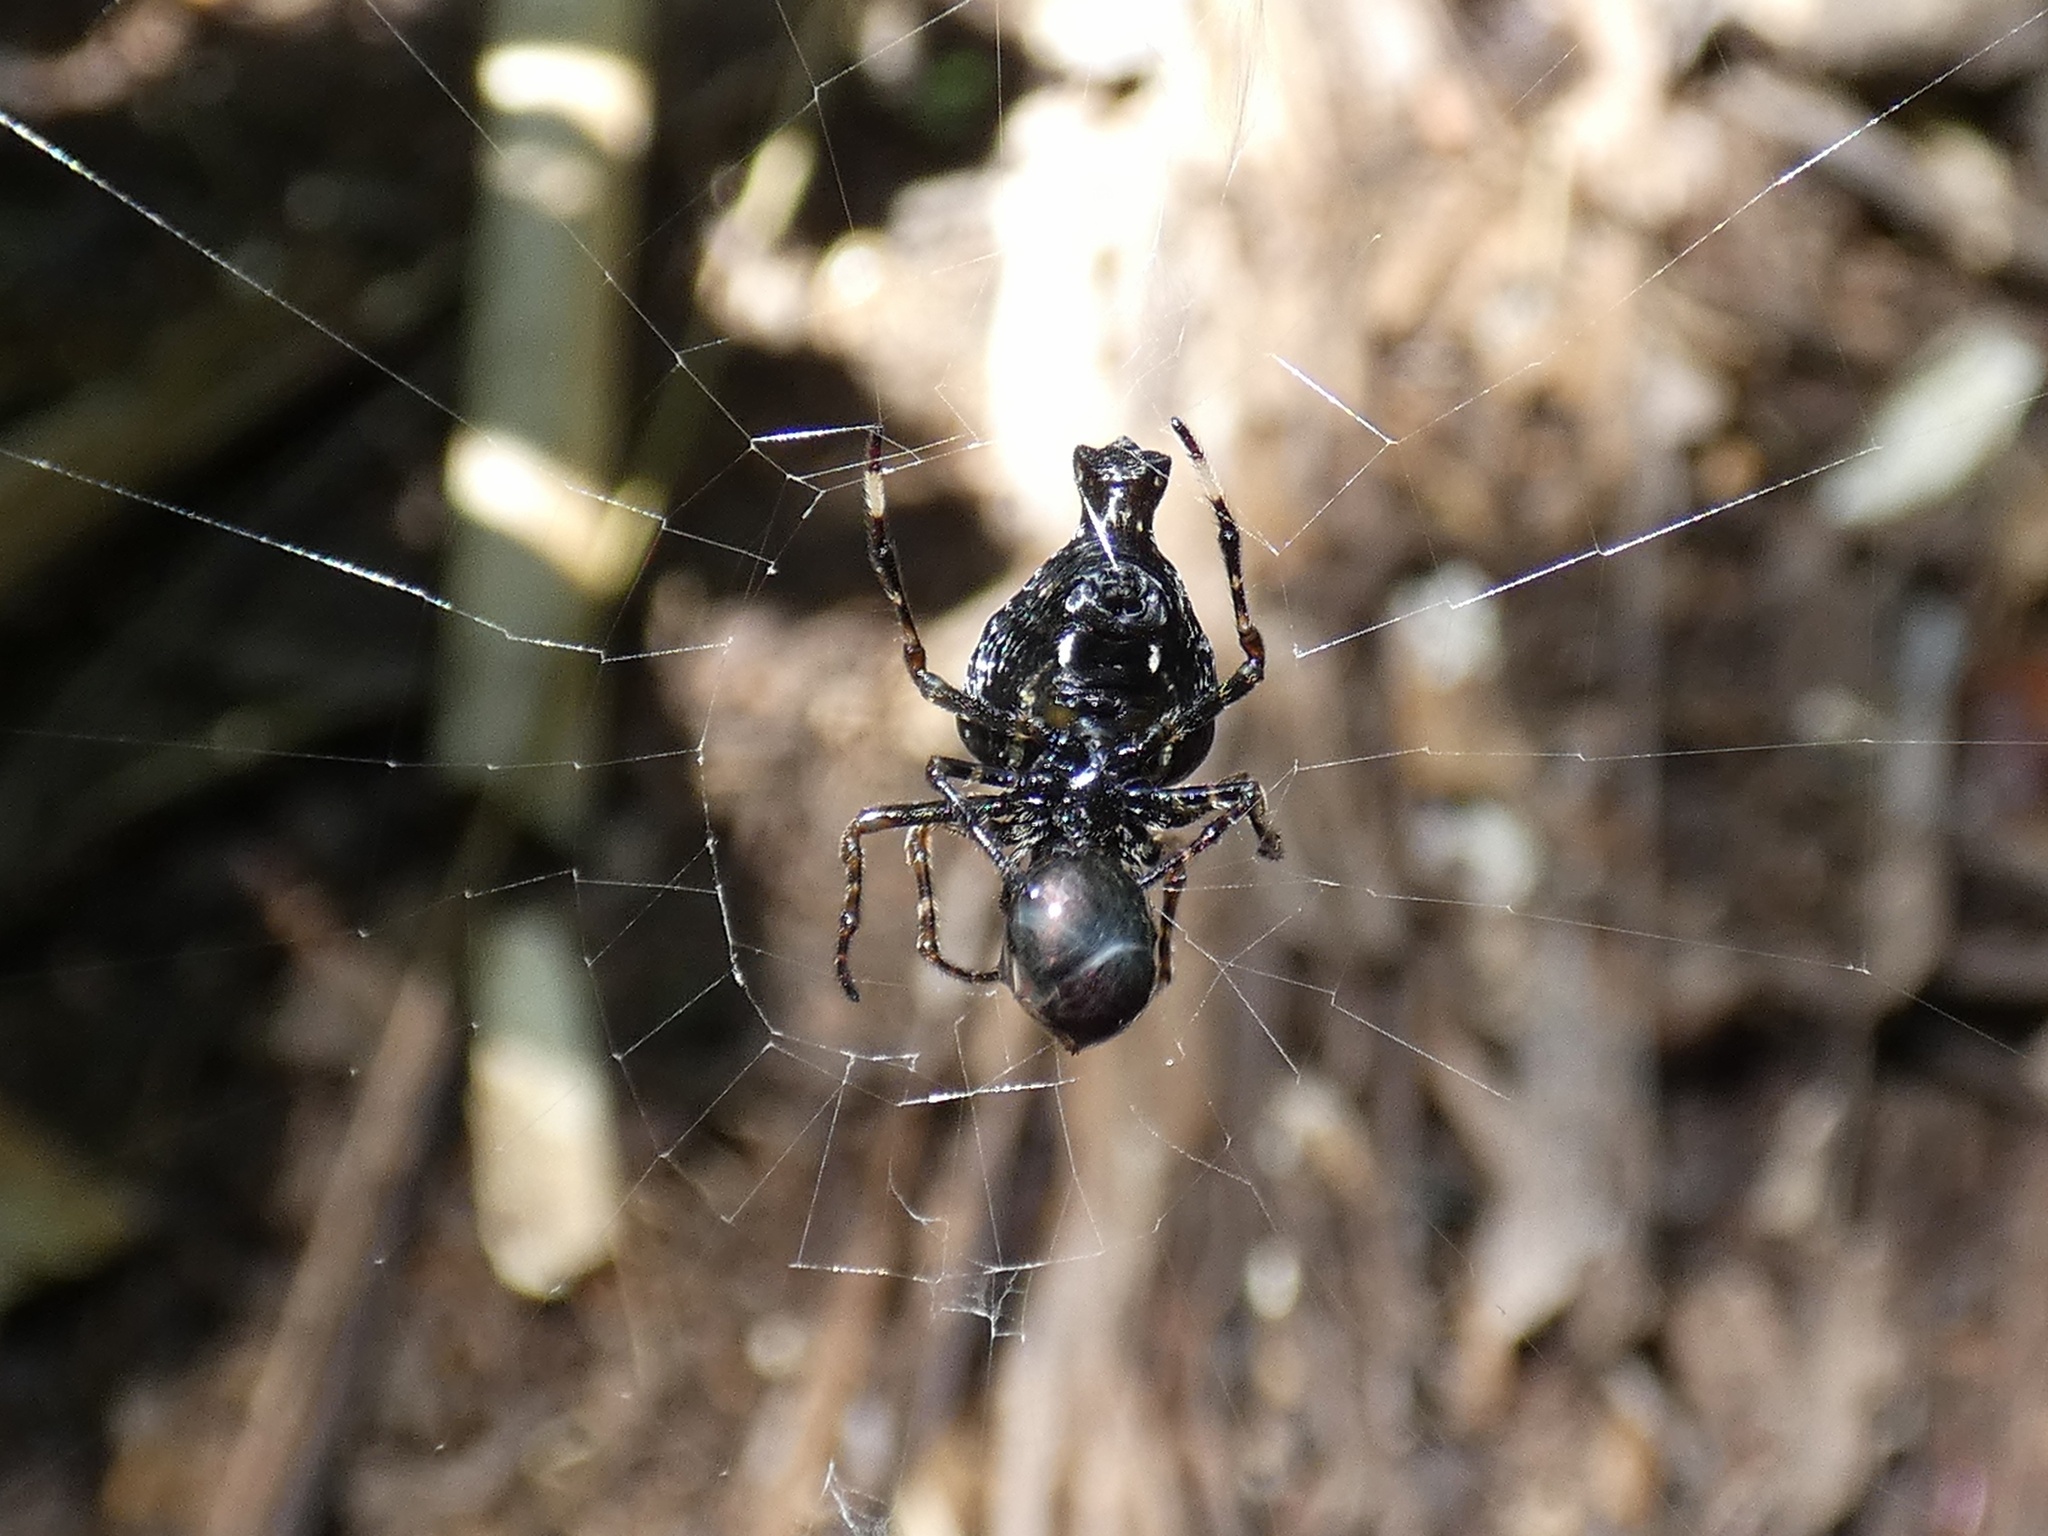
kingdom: Animalia
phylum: Arthropoda
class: Arachnida
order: Araneae
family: Araneidae
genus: Witica
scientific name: Witica crassicauda
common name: Orb weavers
